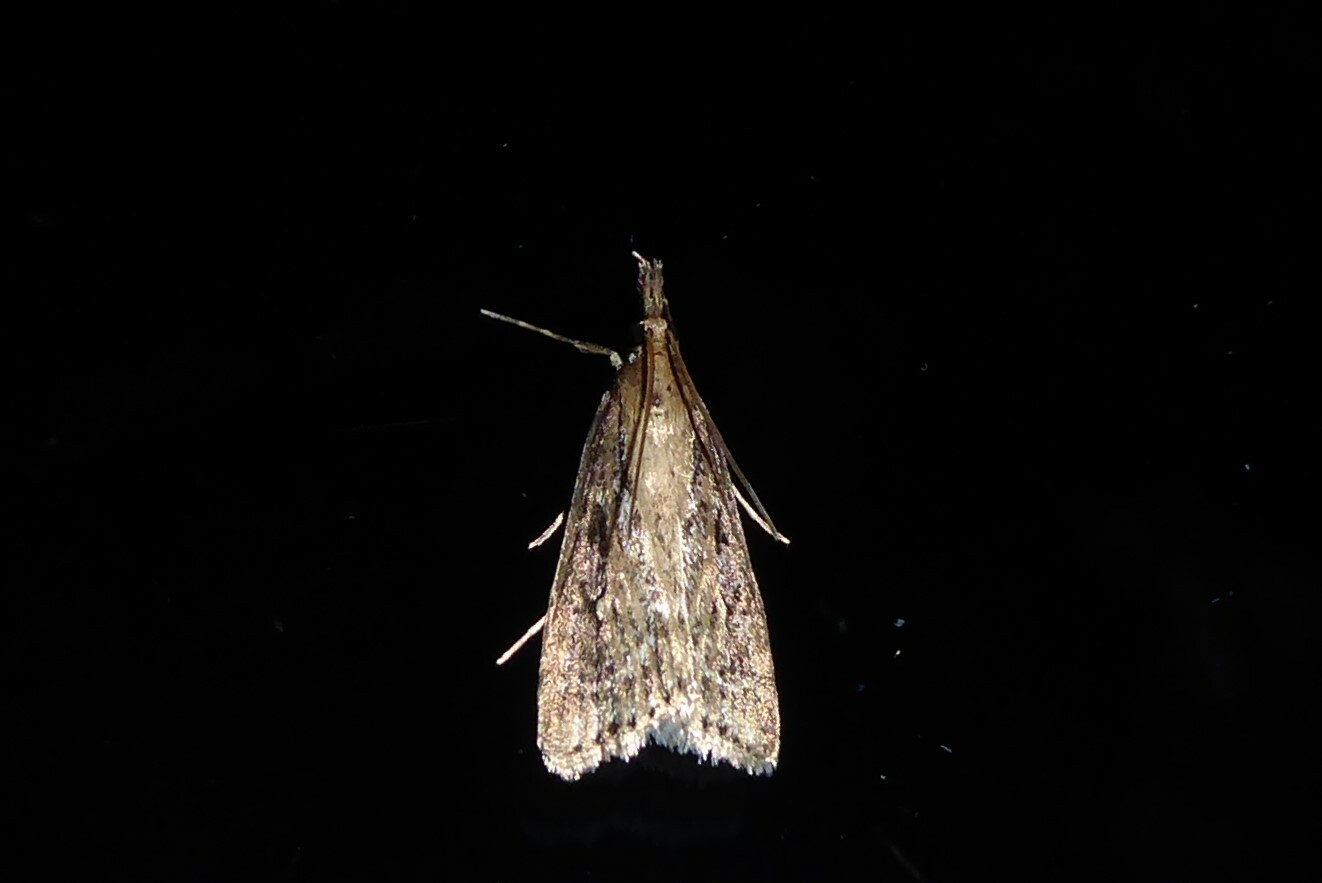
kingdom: Animalia
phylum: Arthropoda
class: Insecta
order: Lepidoptera
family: Crambidae
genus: Eudonia
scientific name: Eudonia octophora
